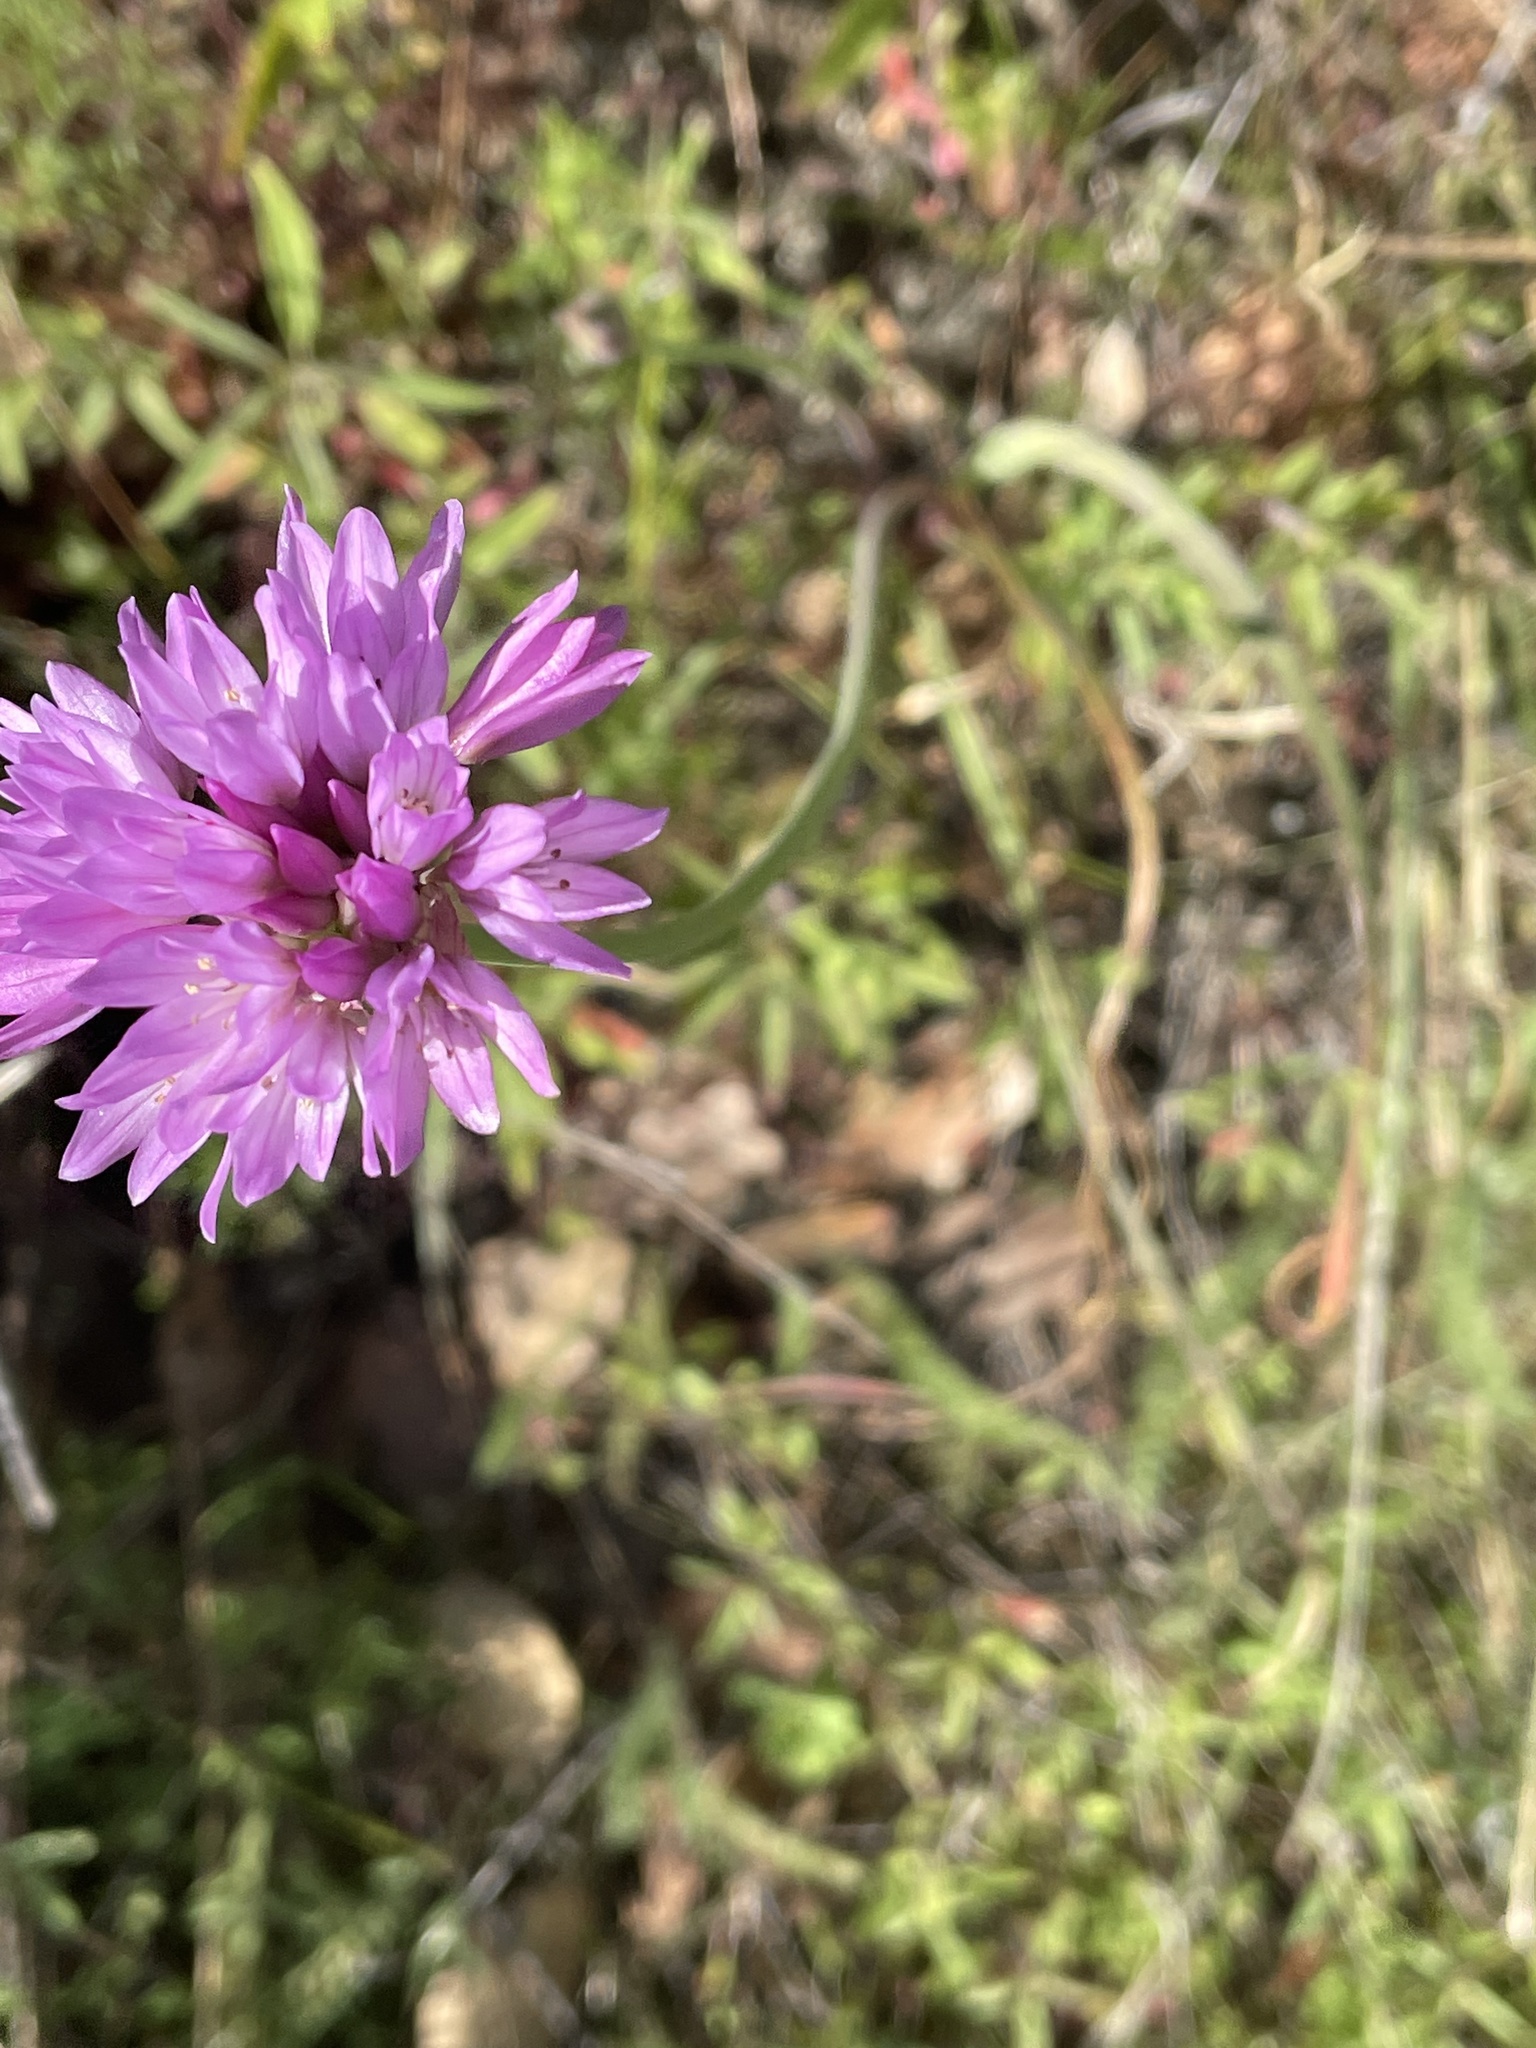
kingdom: Plantae
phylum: Tracheophyta
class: Liliopsida
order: Asparagales
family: Amaryllidaceae
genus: Allium
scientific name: Allium serra
